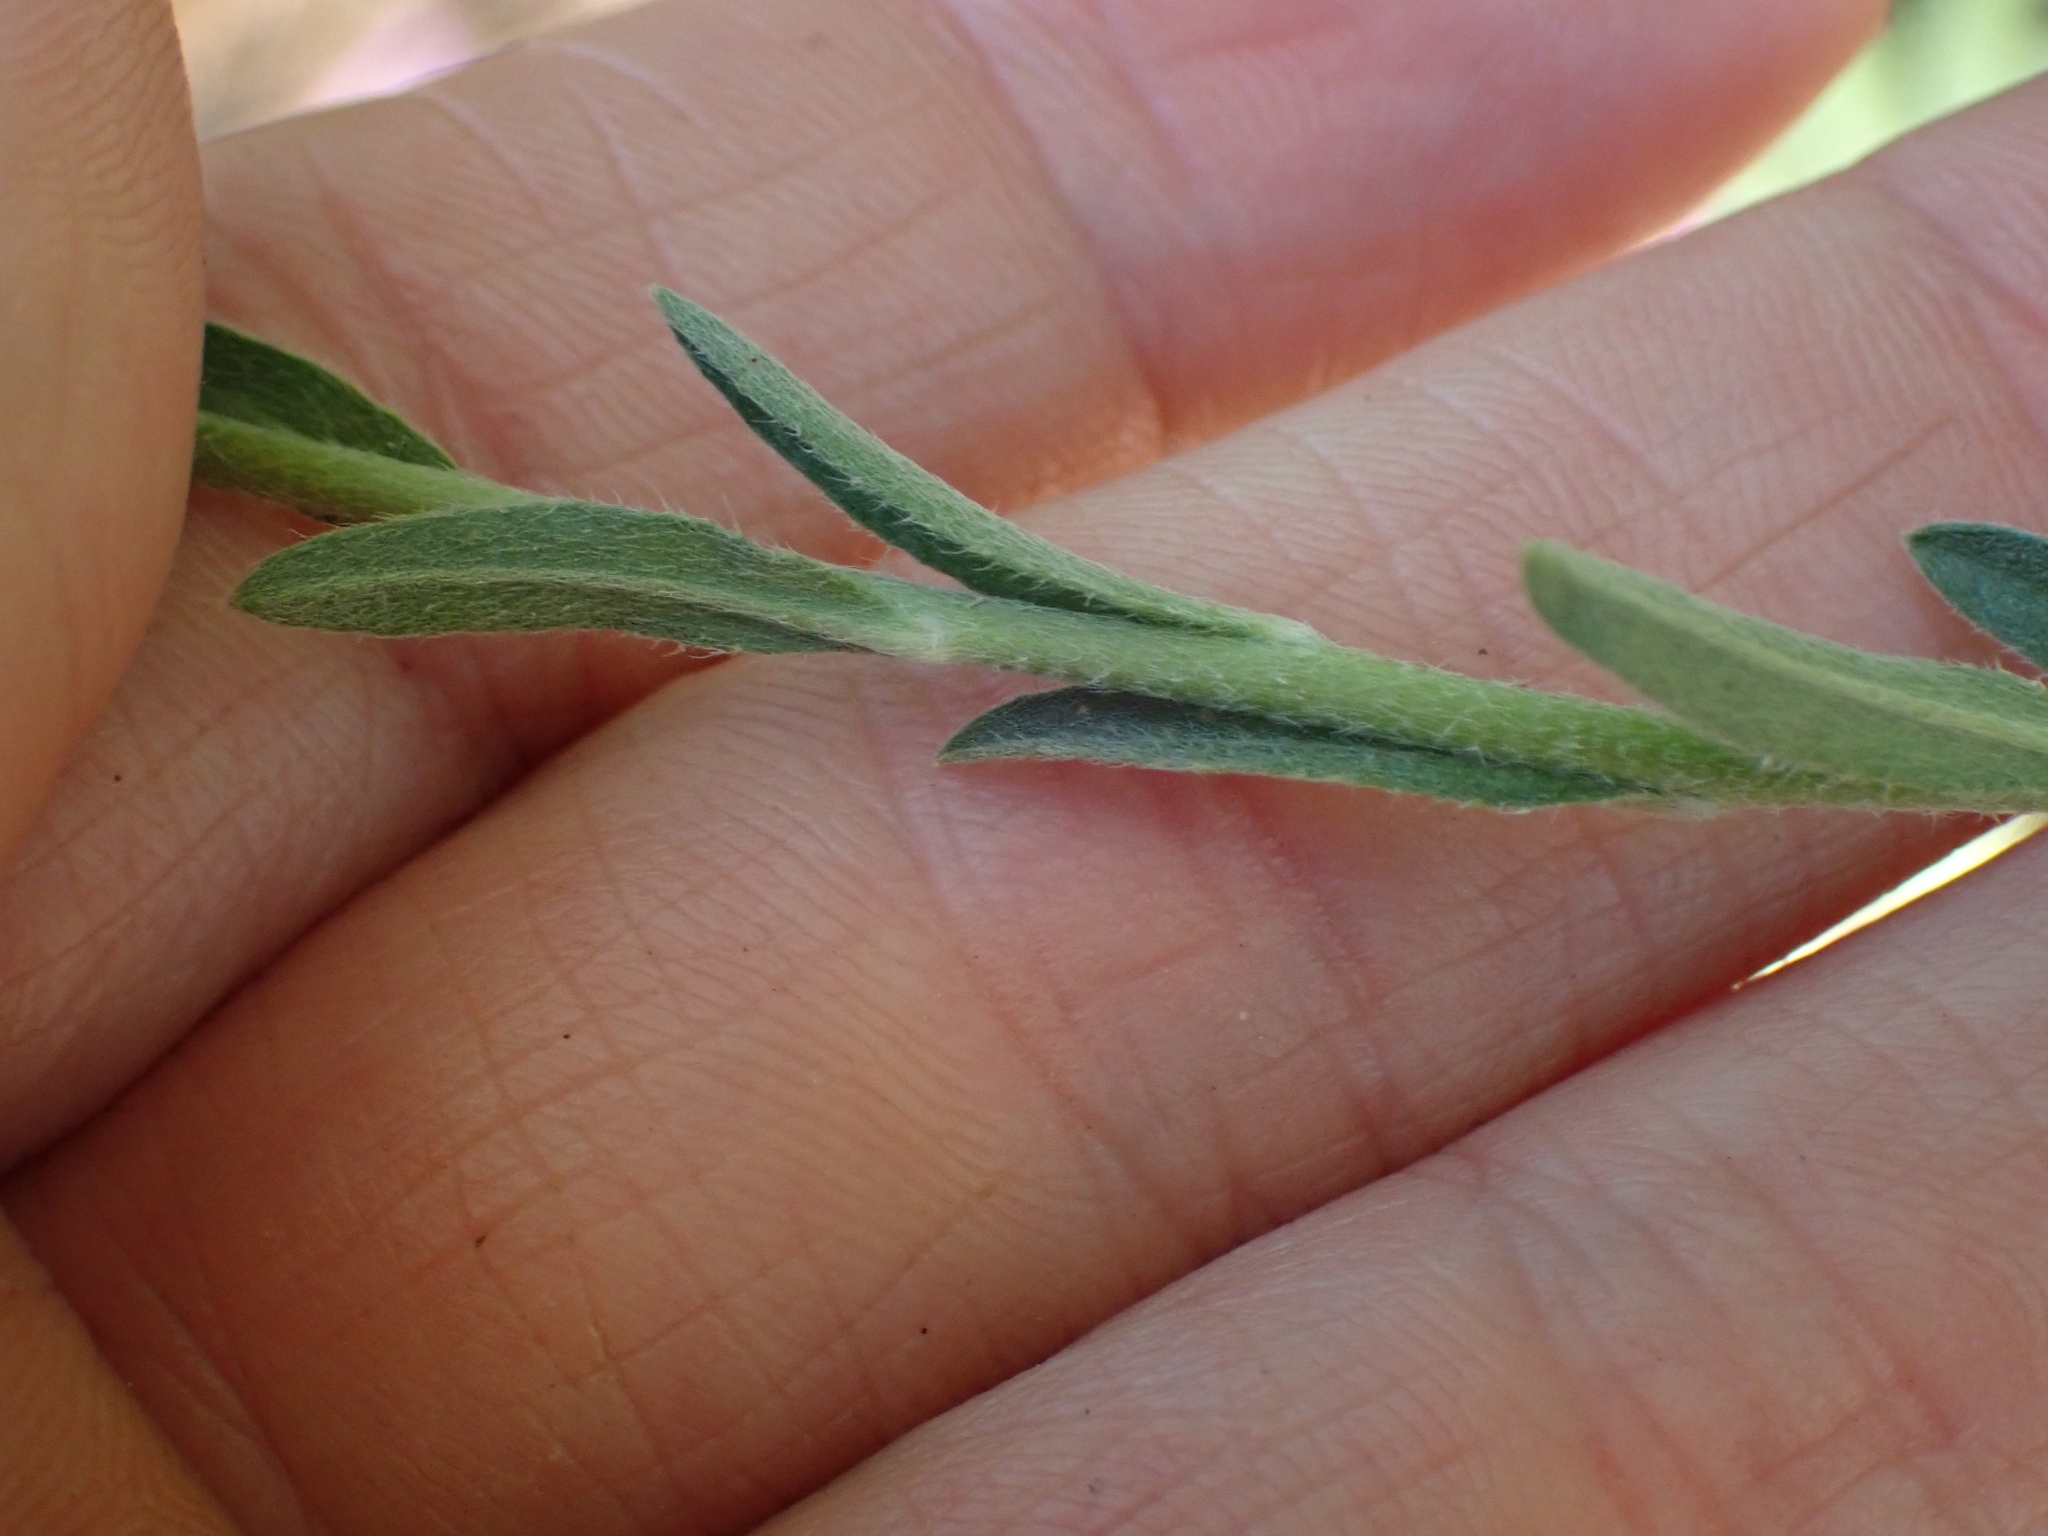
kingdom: Plantae
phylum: Tracheophyta
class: Magnoliopsida
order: Brassicales
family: Brassicaceae
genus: Berteroa
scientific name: Berteroa incana
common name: Hoary alison
